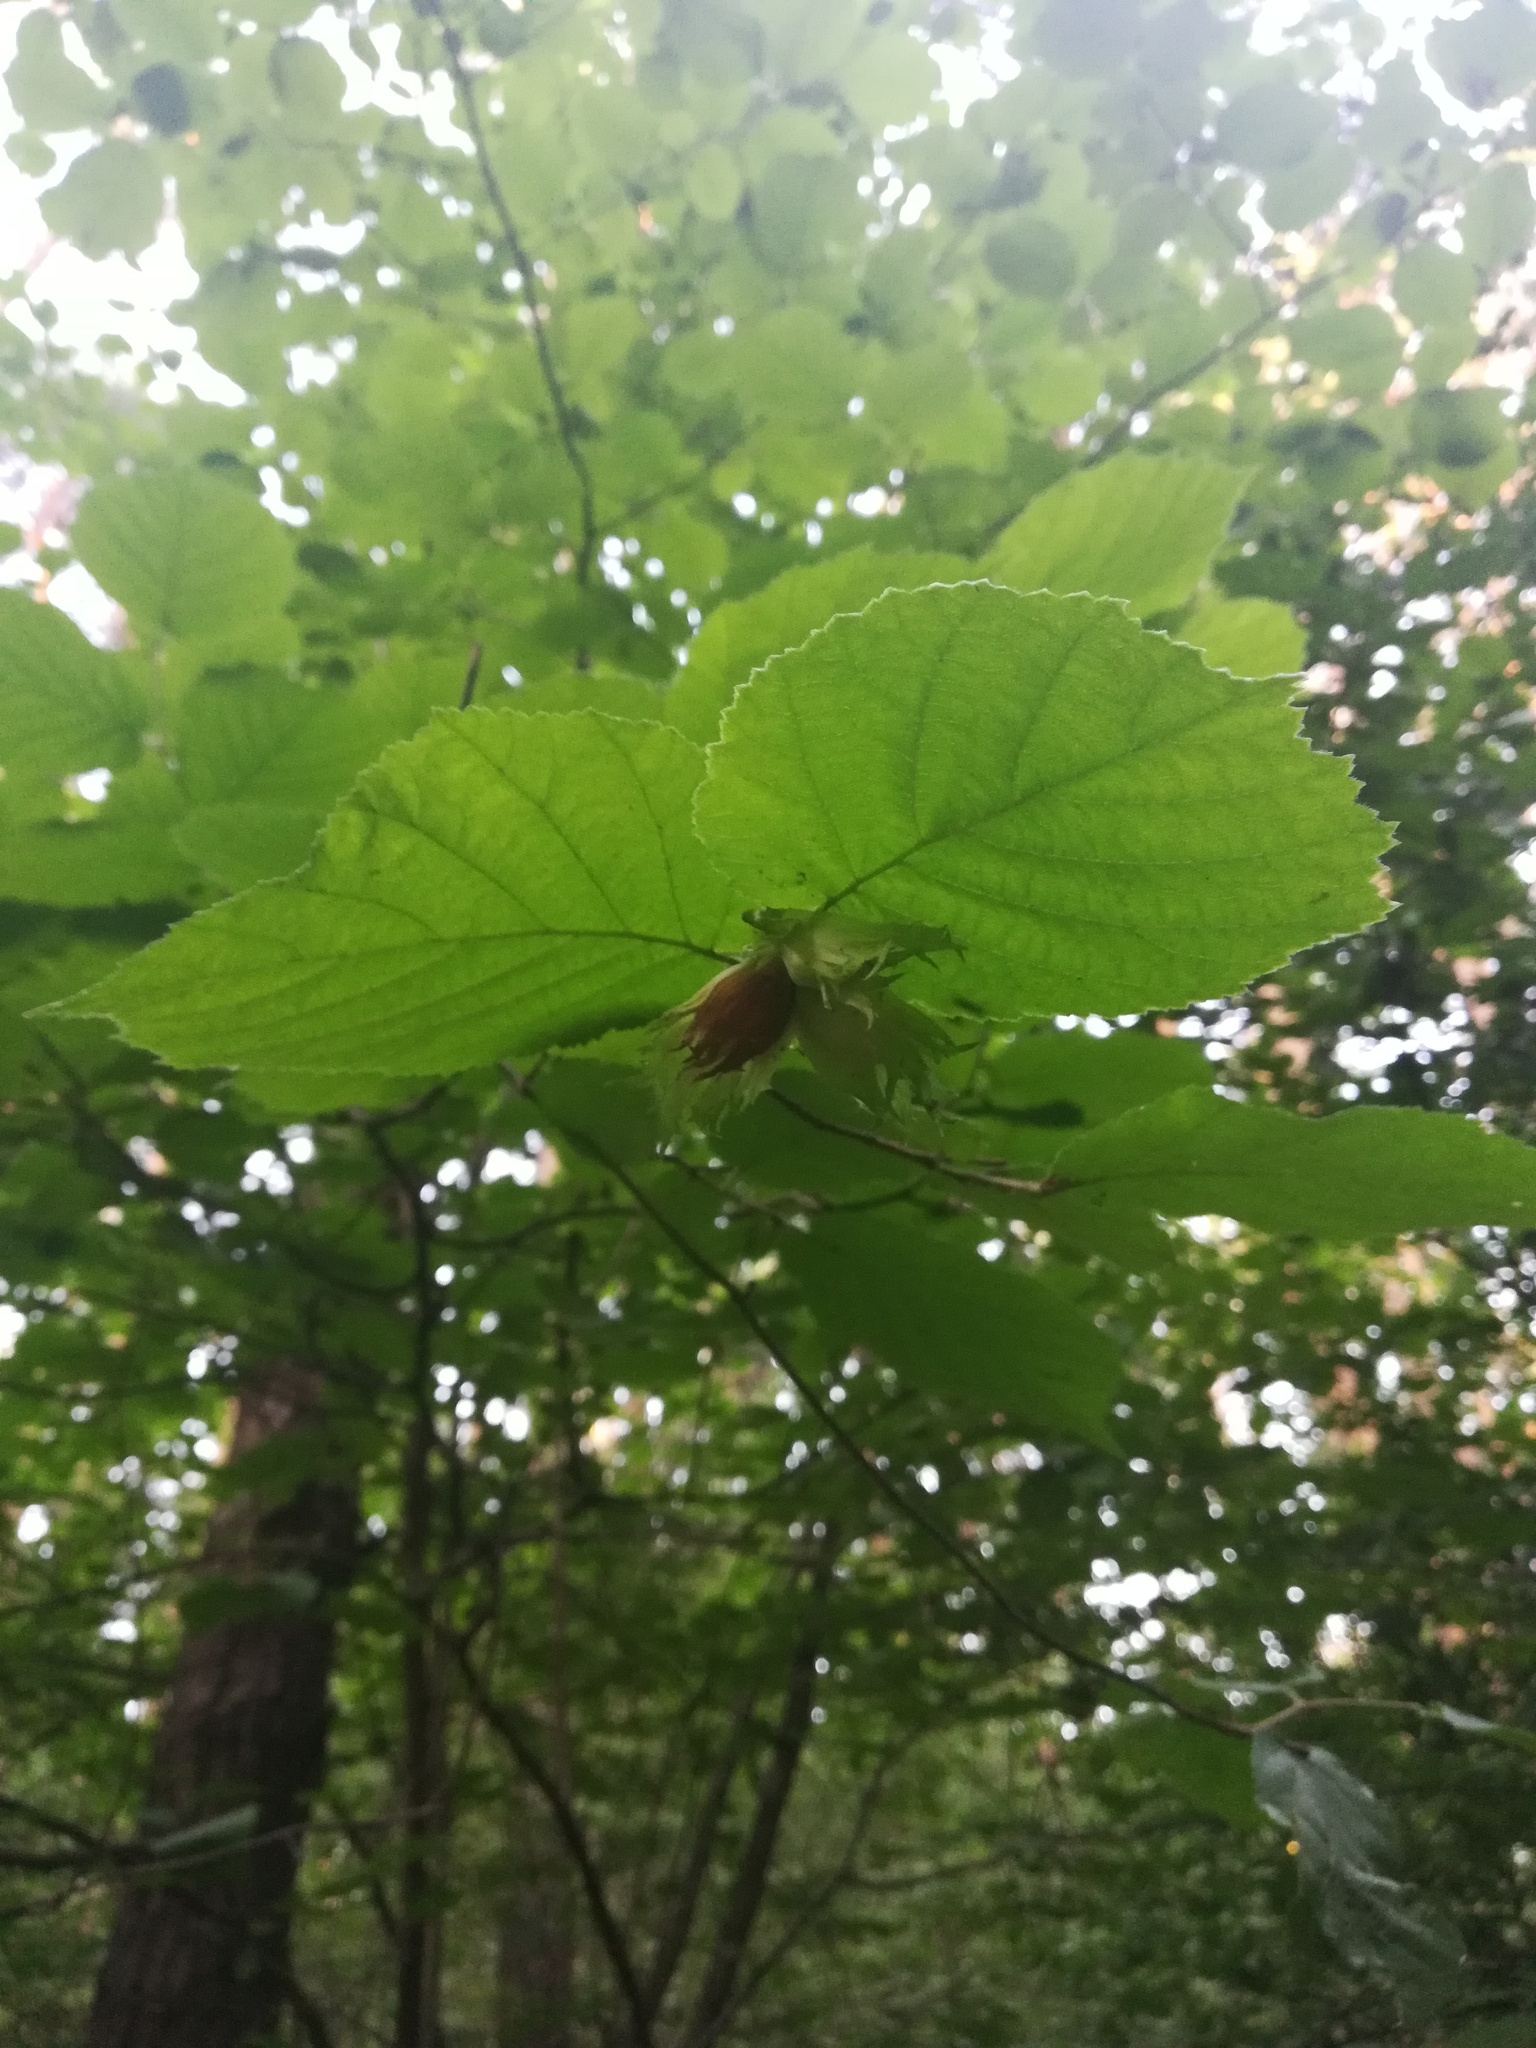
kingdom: Plantae
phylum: Tracheophyta
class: Magnoliopsida
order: Fagales
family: Betulaceae
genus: Corylus
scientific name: Corylus avellana
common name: European hazel
